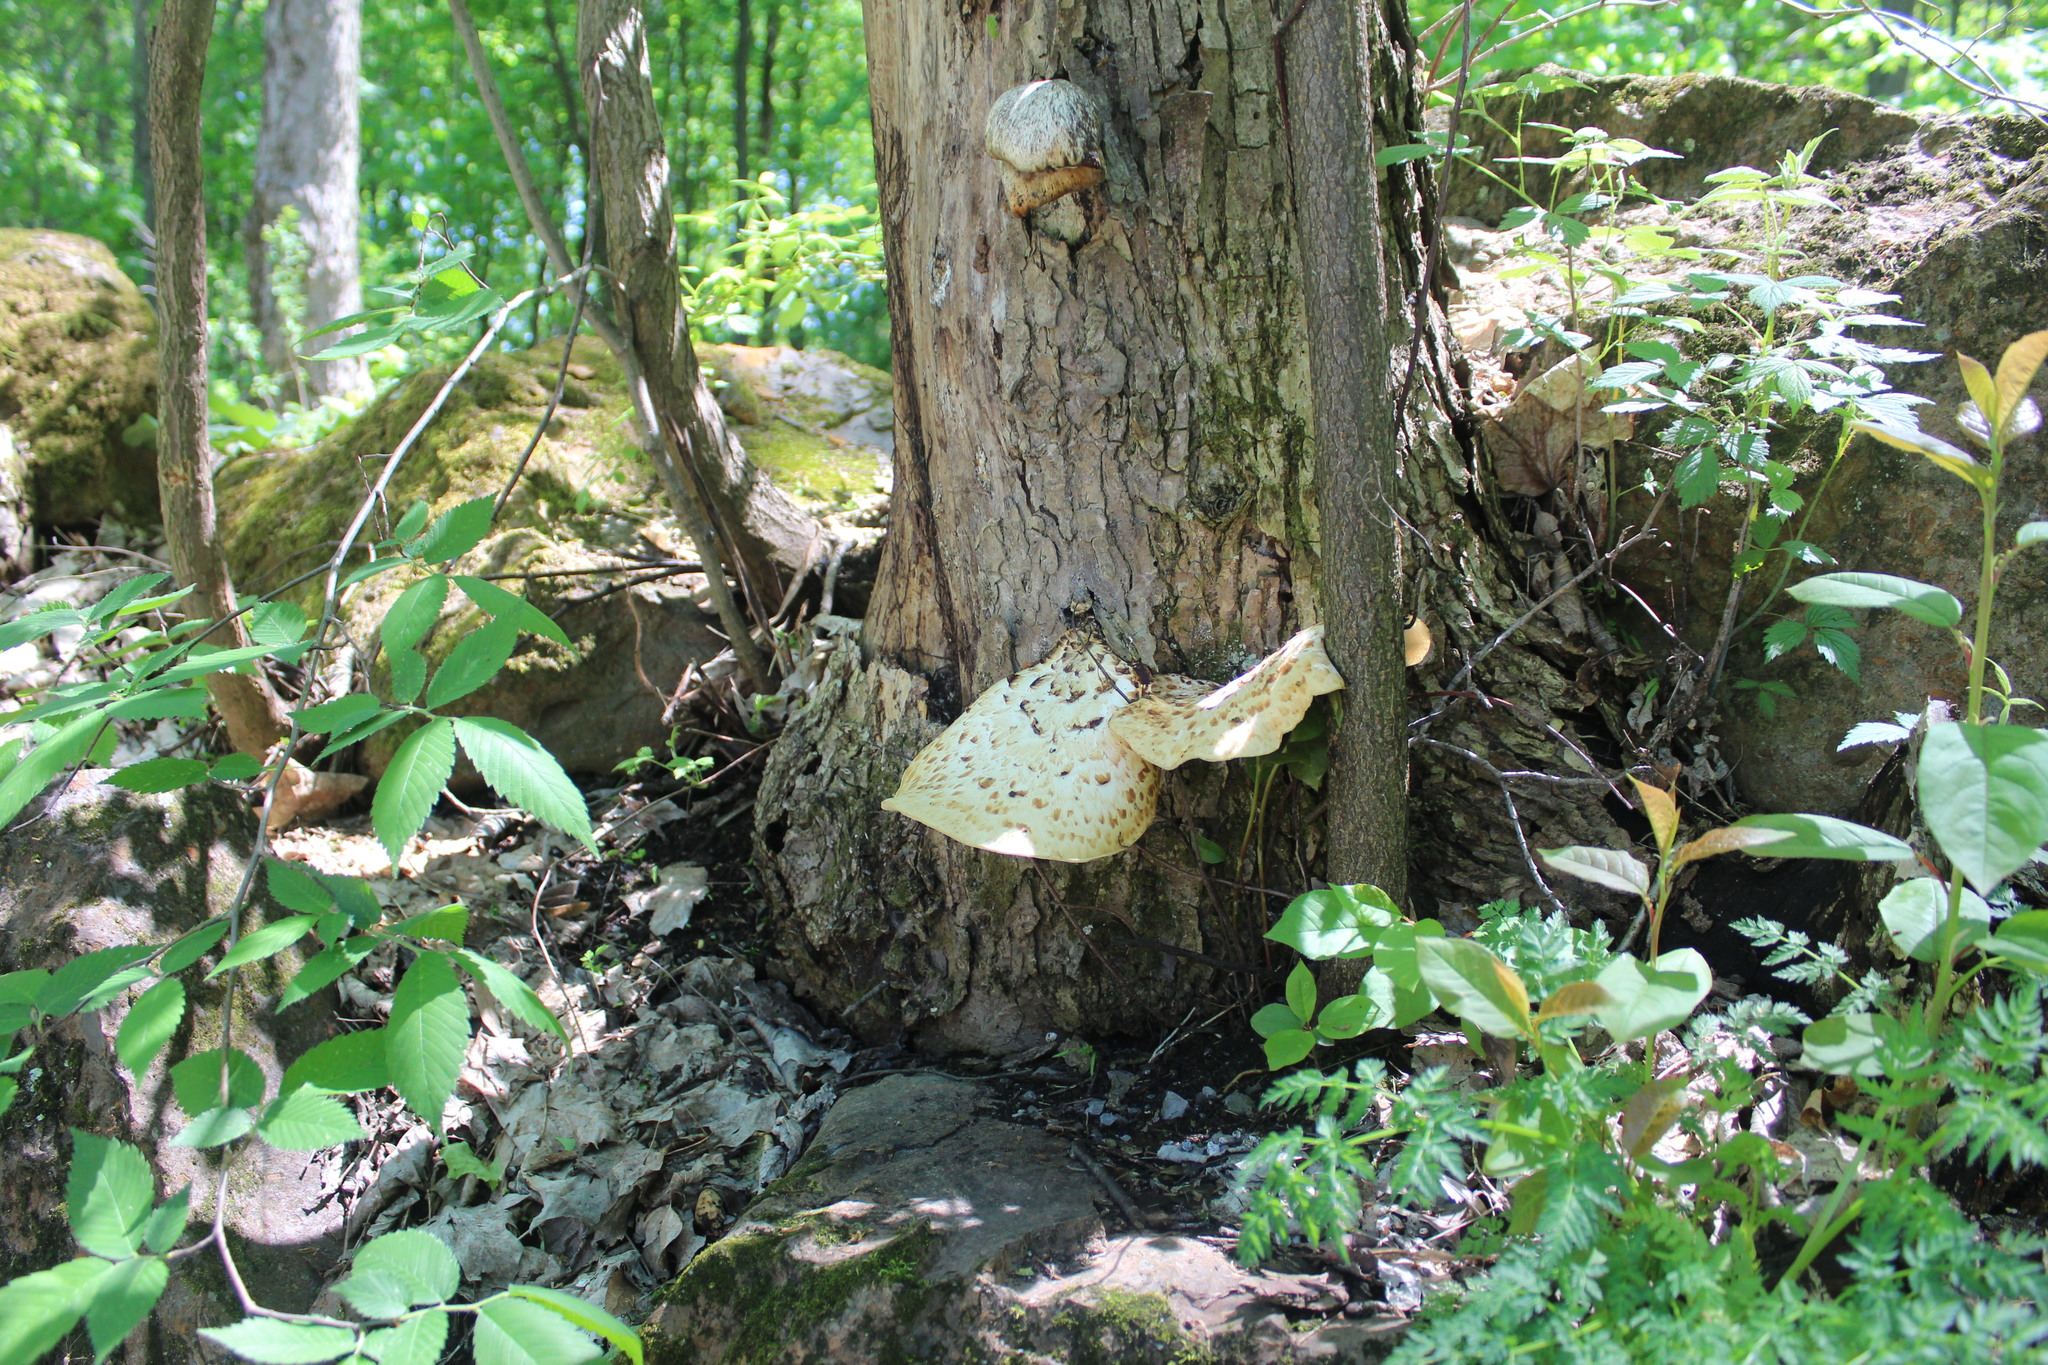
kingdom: Fungi
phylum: Basidiomycota
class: Agaricomycetes
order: Polyporales
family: Polyporaceae
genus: Cerioporus
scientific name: Cerioporus squamosus
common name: Dryad's saddle
